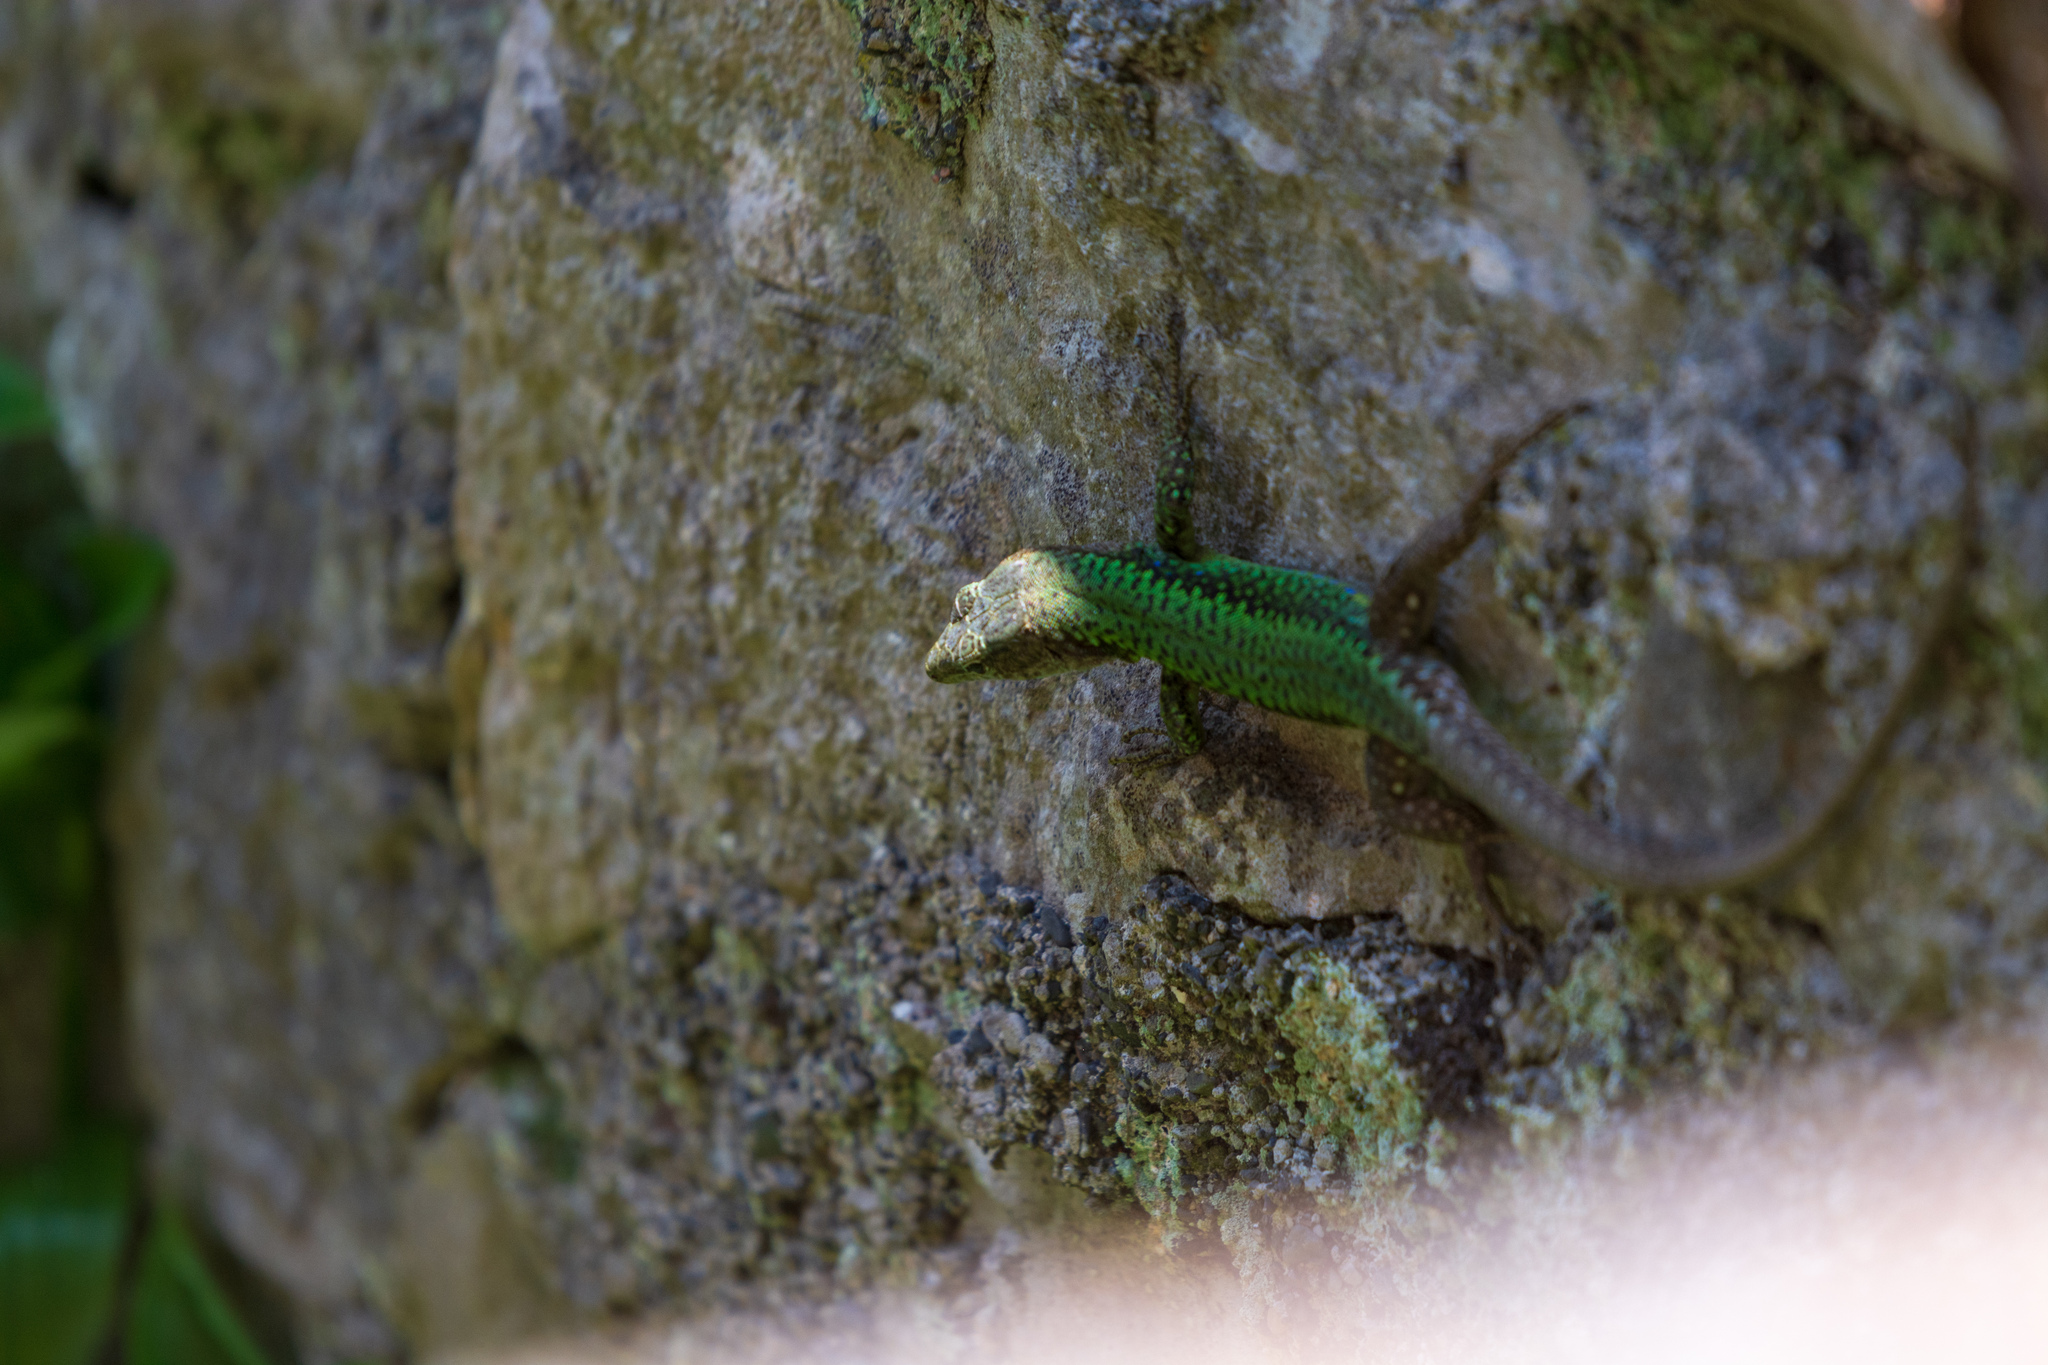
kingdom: Animalia
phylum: Chordata
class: Squamata
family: Lacertidae
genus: Darevskia
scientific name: Darevskia brauneri
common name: Brauner's rock lizard
